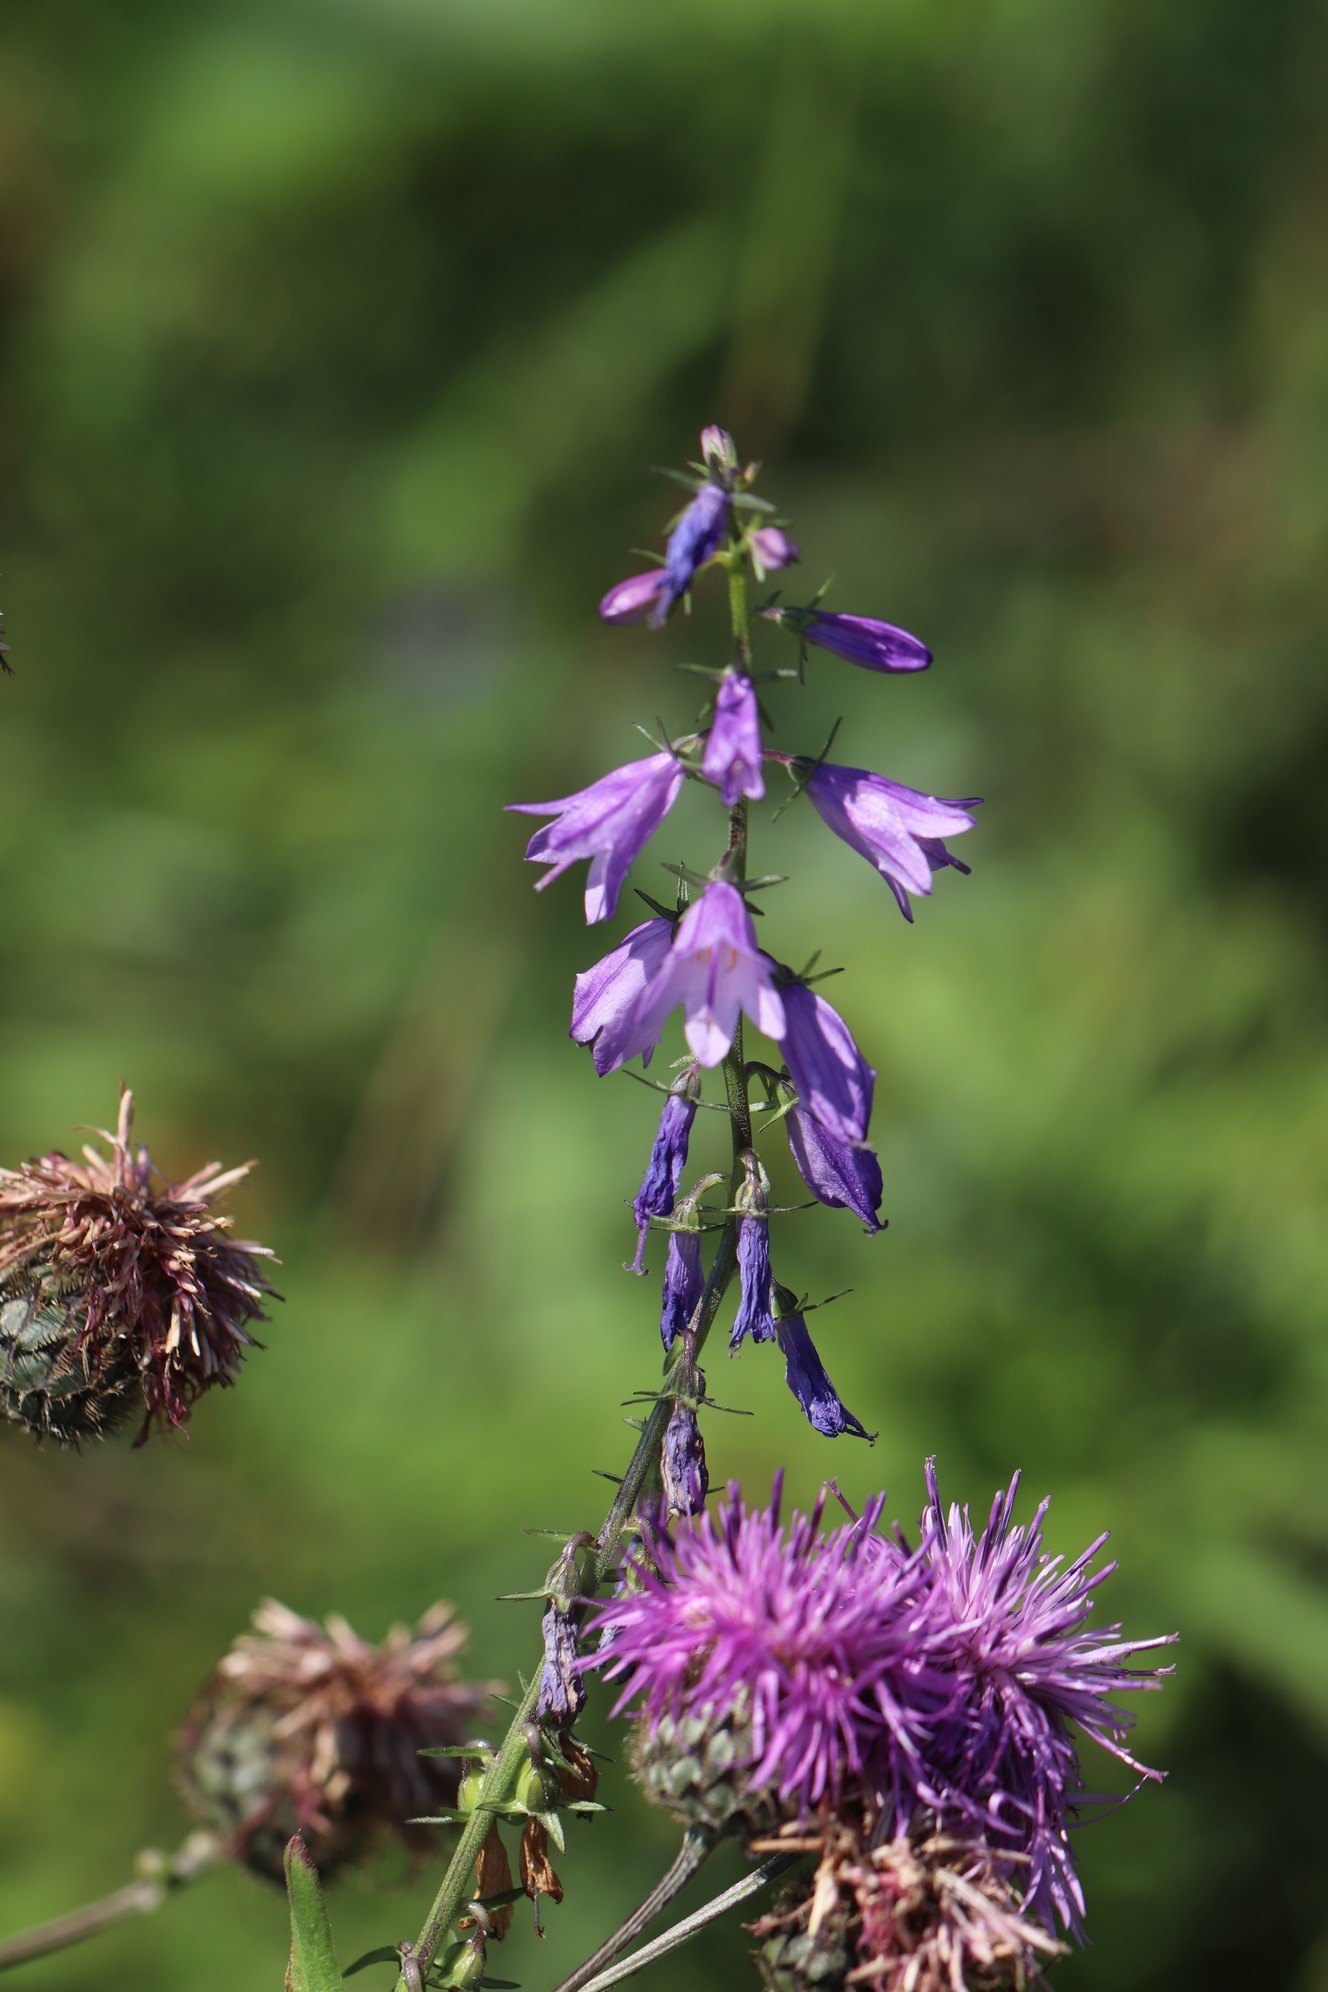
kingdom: Plantae
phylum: Tracheophyta
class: Magnoliopsida
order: Asterales
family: Campanulaceae
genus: Campanula
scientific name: Campanula bononiensis
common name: Pale bellflower
